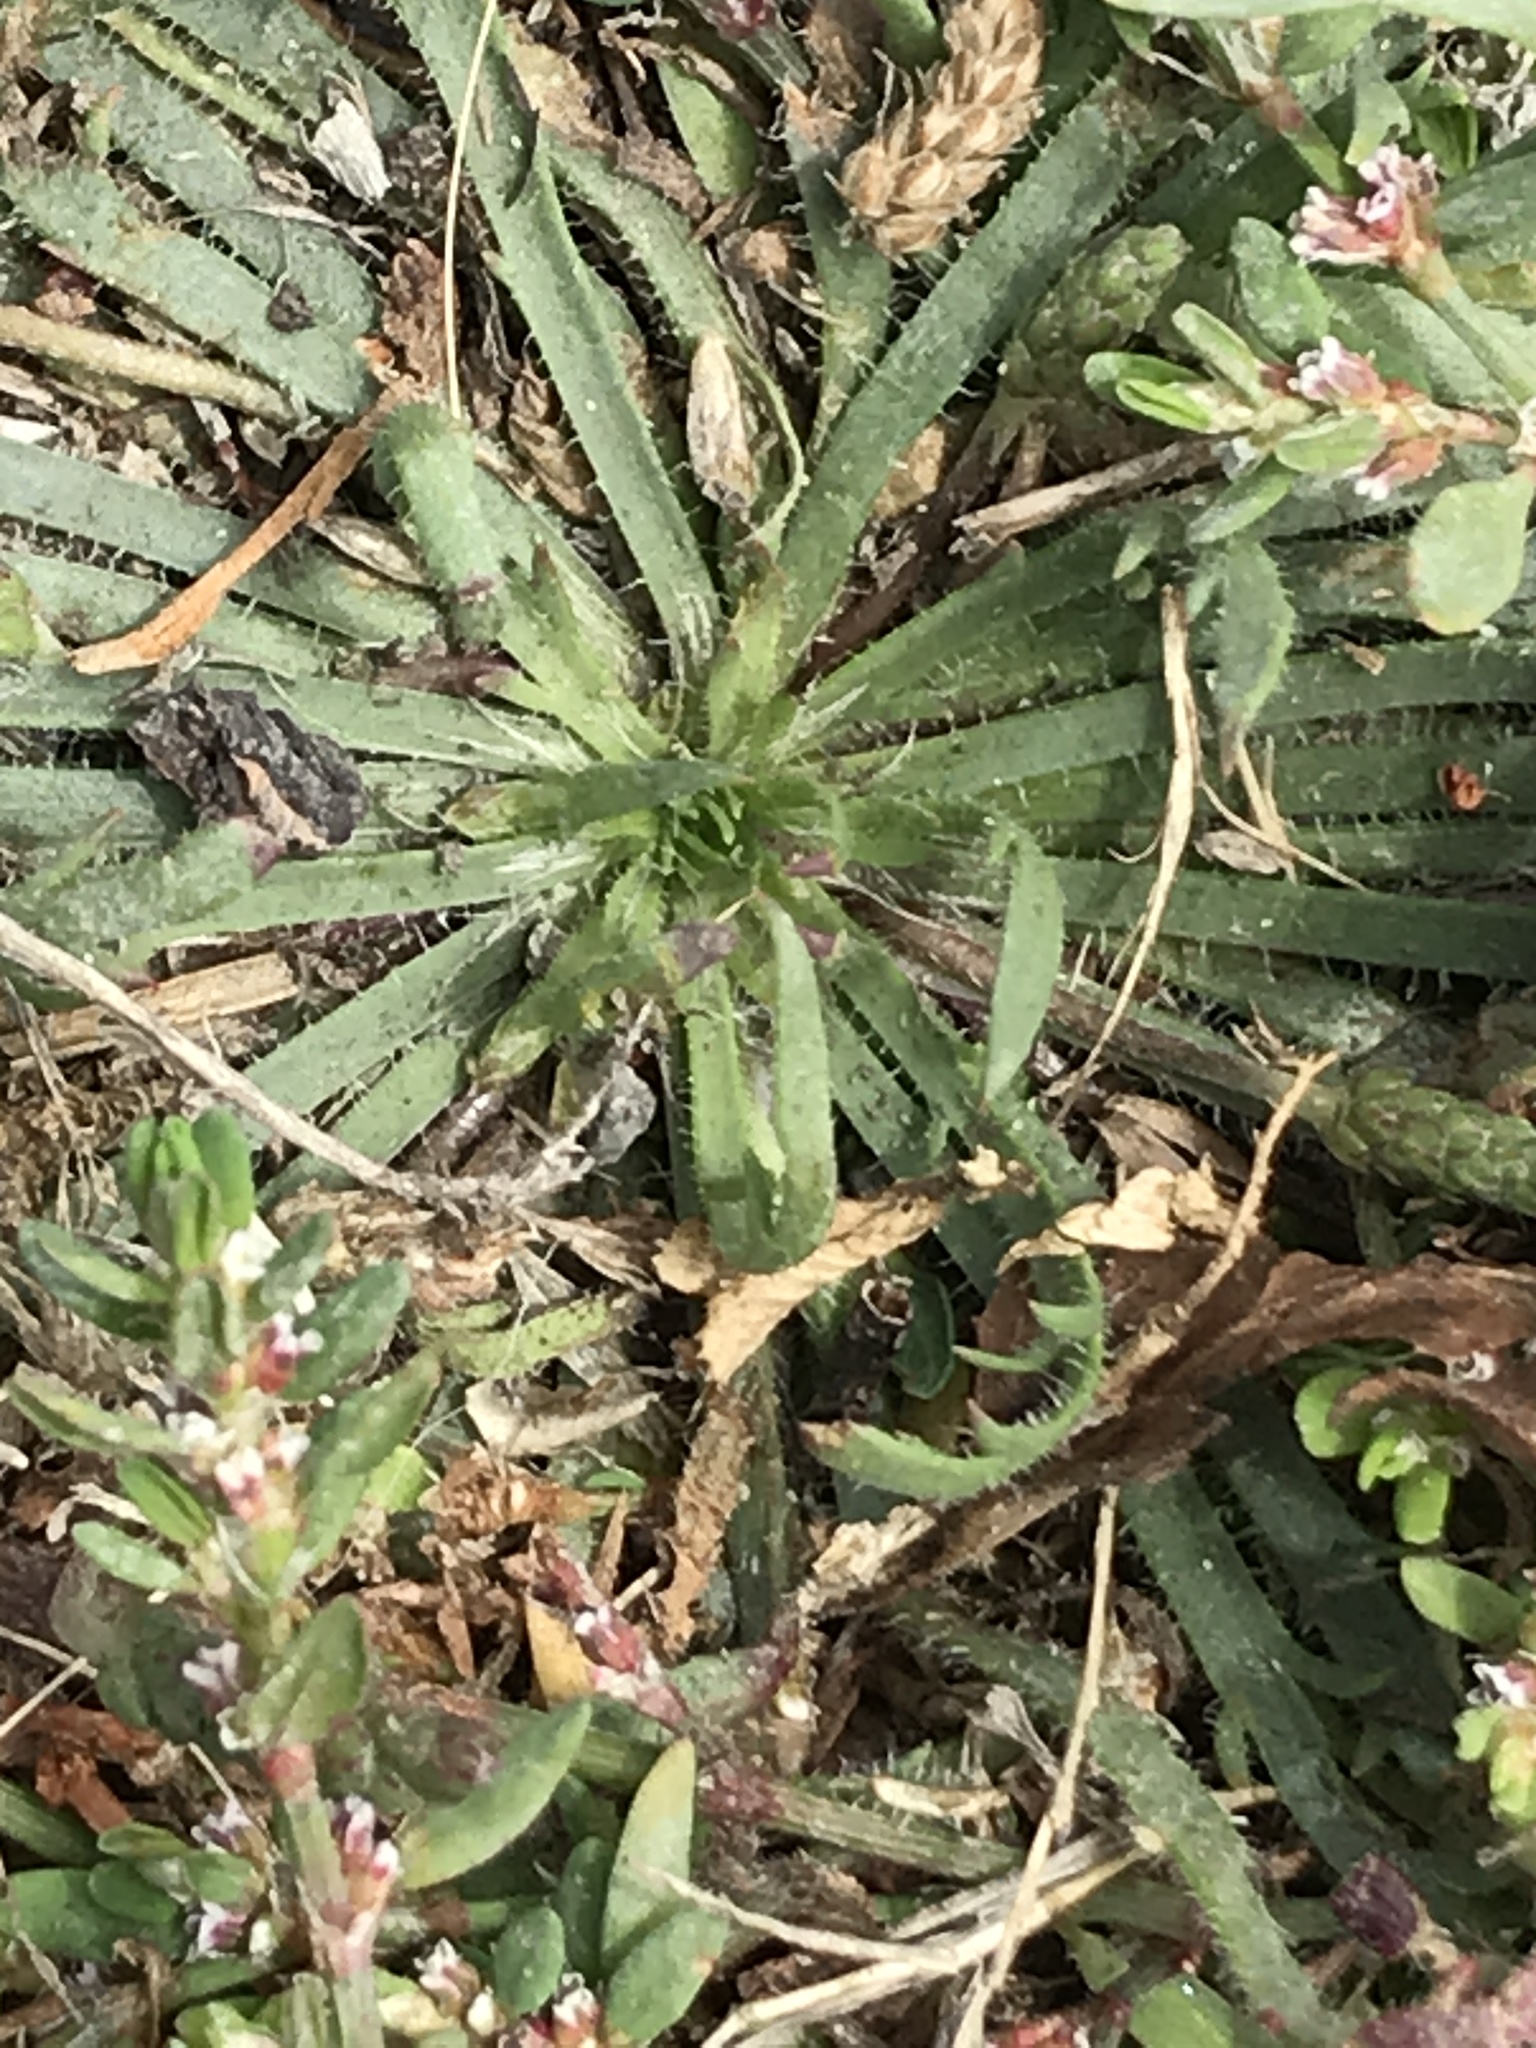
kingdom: Plantae
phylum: Tracheophyta
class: Magnoliopsida
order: Lamiales
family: Plantaginaceae
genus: Plantago
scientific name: Plantago coronopus
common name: Buck's-horn plantain
